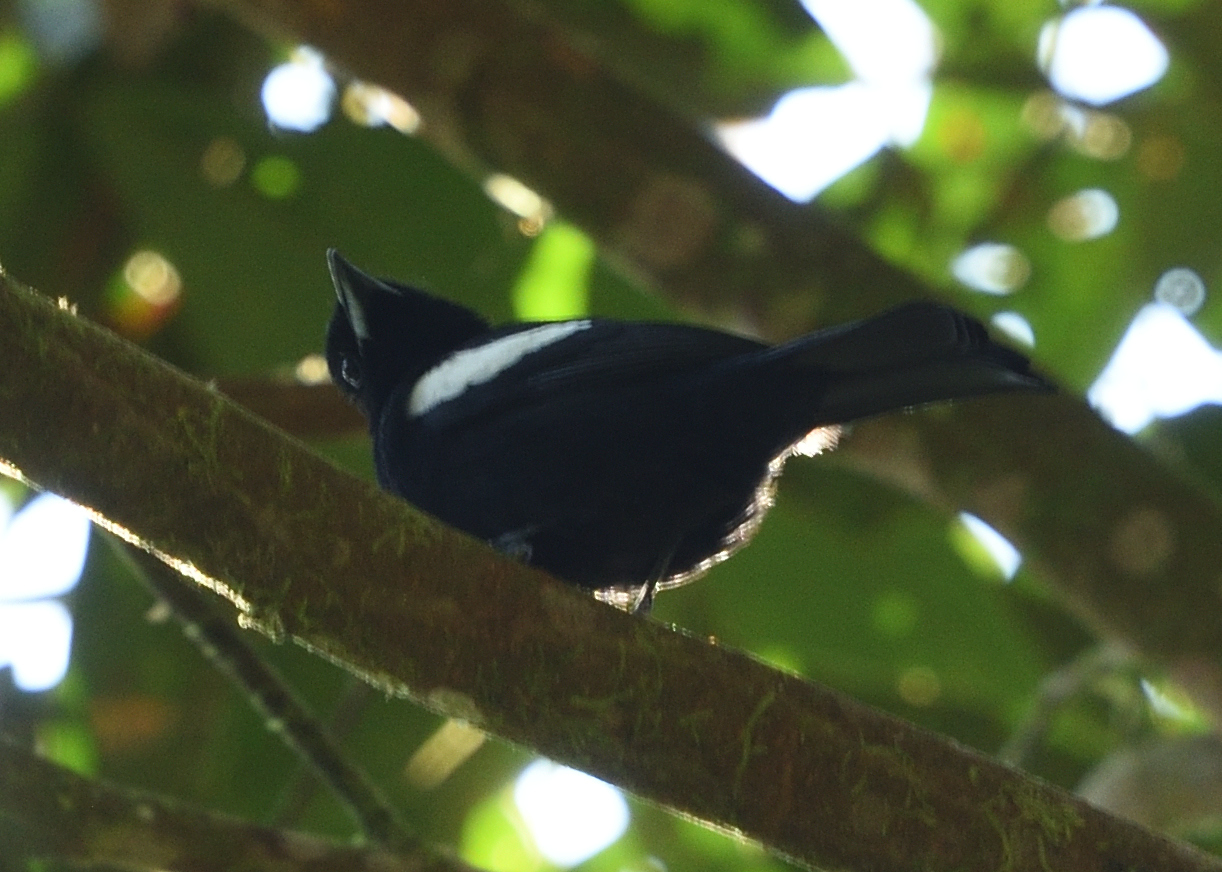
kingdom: Animalia
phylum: Chordata
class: Aves
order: Passeriformes
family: Thraupidae
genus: Loriotus
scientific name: Loriotus luctuosus
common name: White-shouldered tanager
